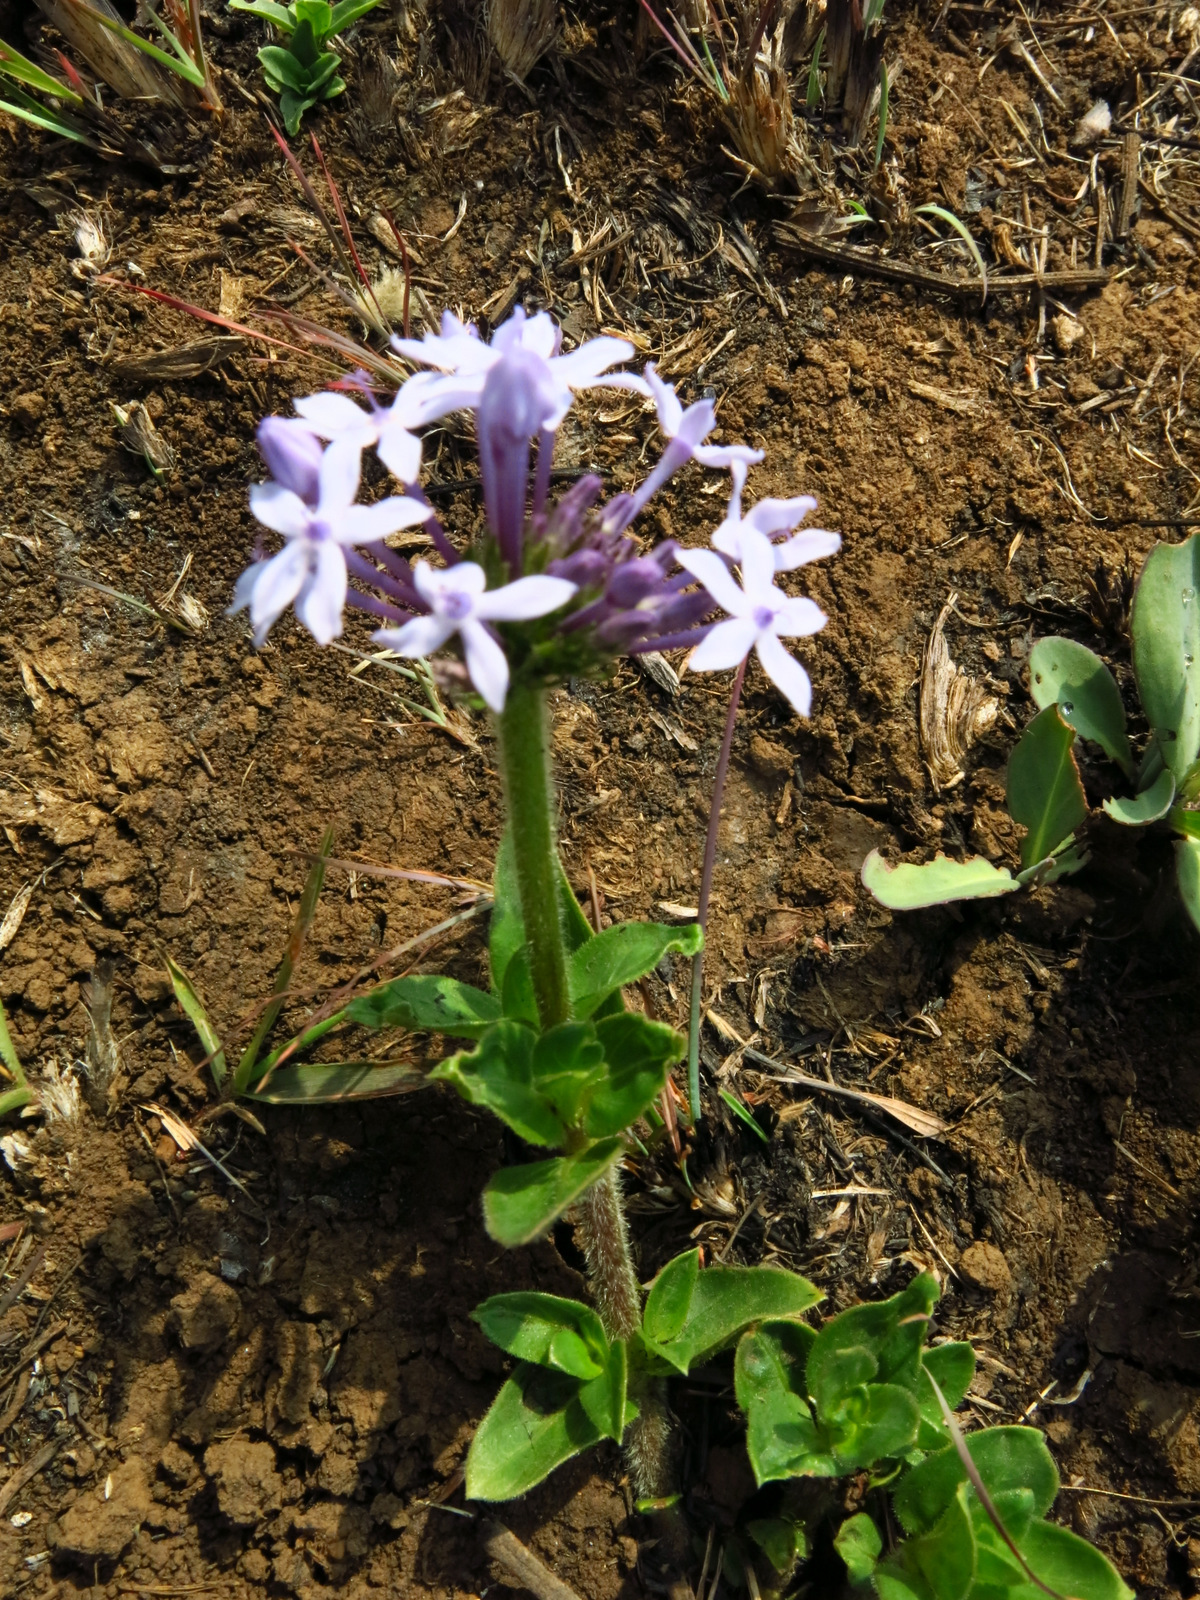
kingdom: Plantae
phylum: Tracheophyta
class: Magnoliopsida
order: Gentianales
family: Rubiaceae
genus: Pentanisia
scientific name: Pentanisia prunelloides
